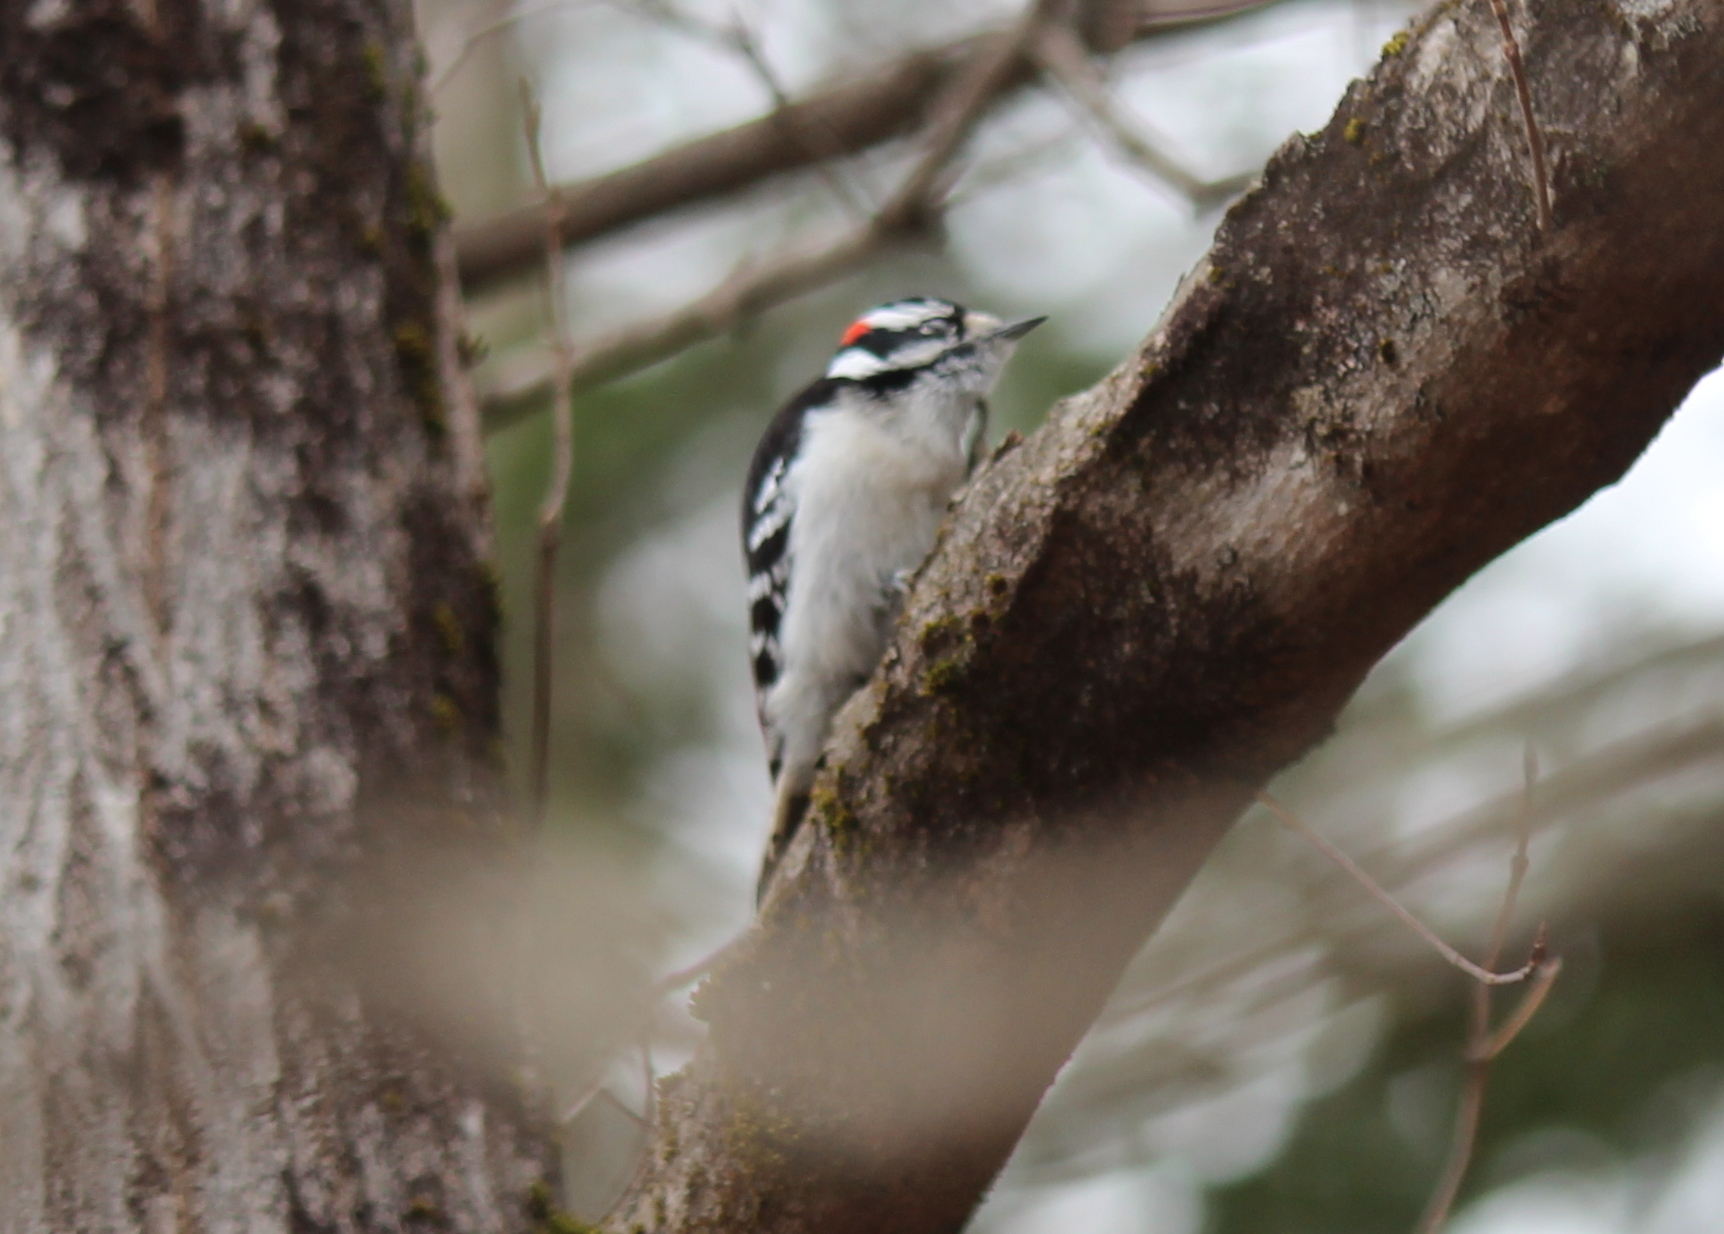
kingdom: Animalia
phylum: Chordata
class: Aves
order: Piciformes
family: Picidae
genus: Dryobates
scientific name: Dryobates pubescens
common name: Downy woodpecker
